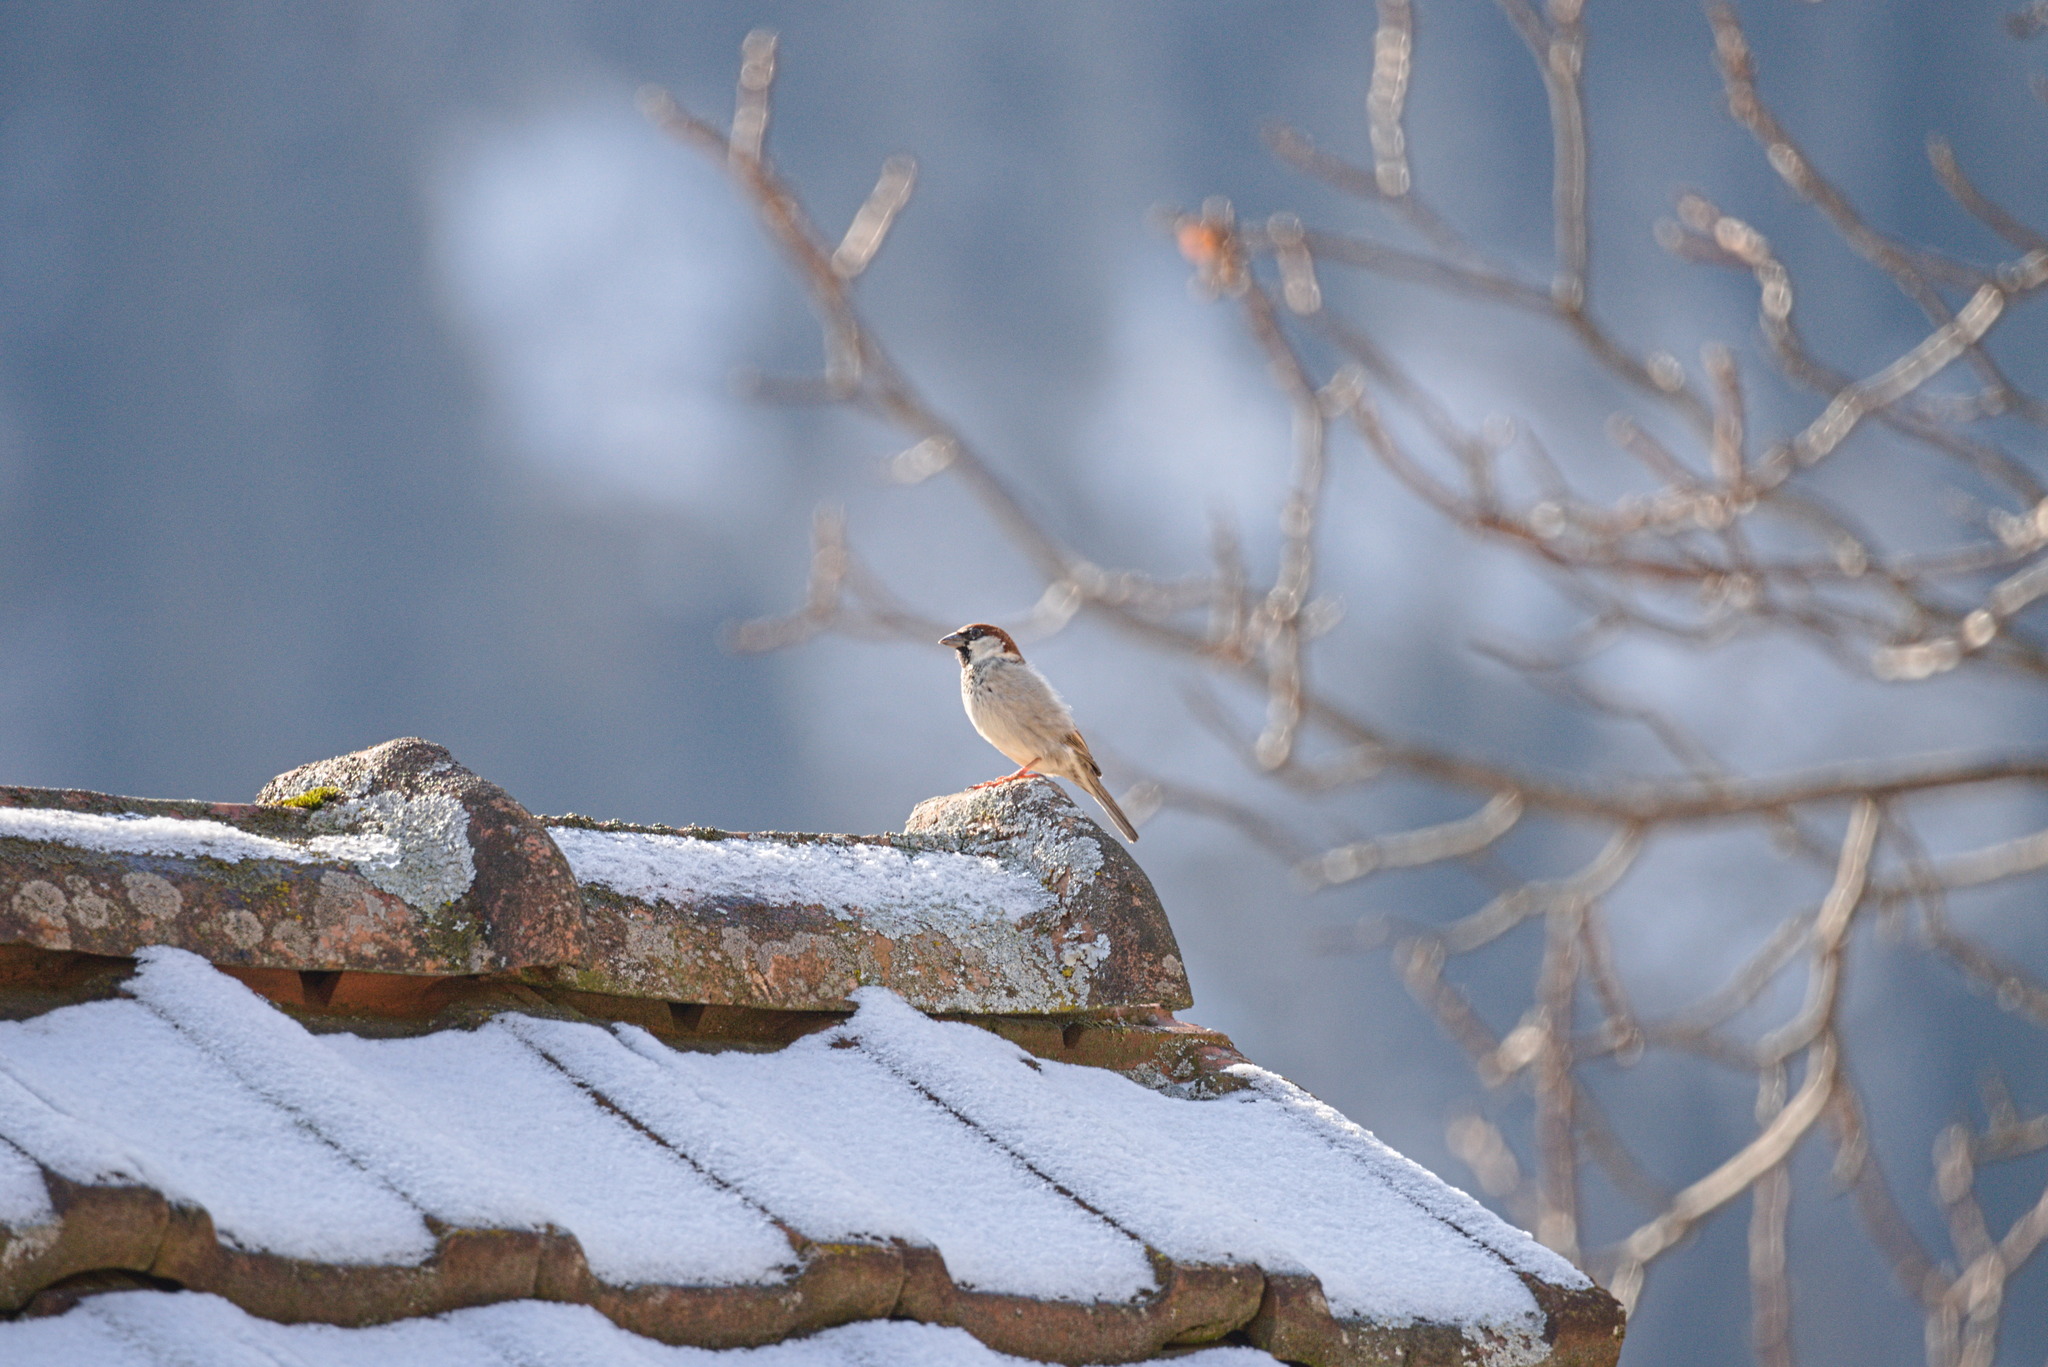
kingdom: Animalia
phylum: Chordata
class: Aves
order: Passeriformes
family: Passeridae
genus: Passer
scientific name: Passer domesticus
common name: House sparrow
